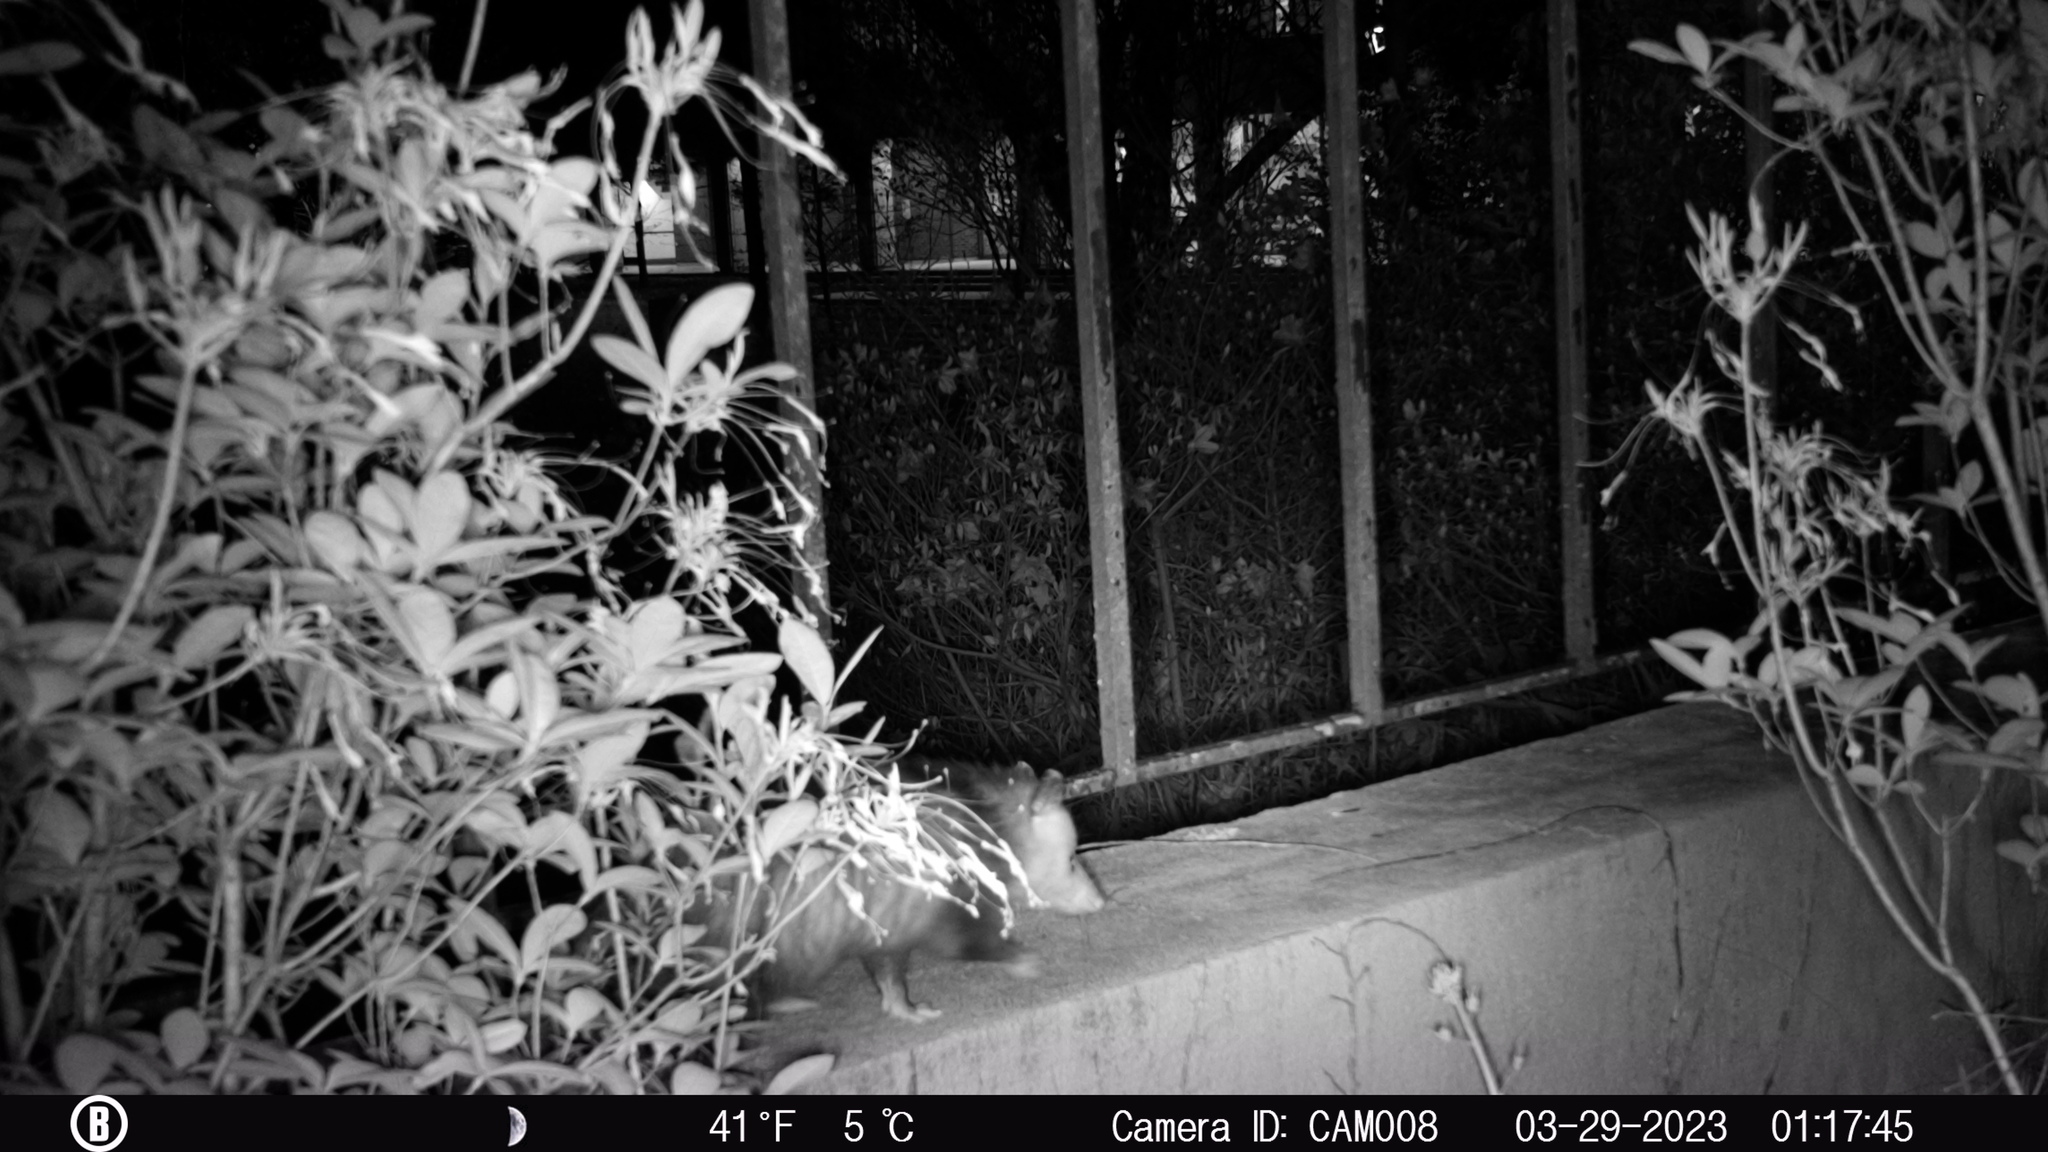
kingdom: Animalia
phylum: Chordata
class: Mammalia
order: Didelphimorphia
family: Didelphidae
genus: Didelphis
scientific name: Didelphis virginiana
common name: Virginia opossum
